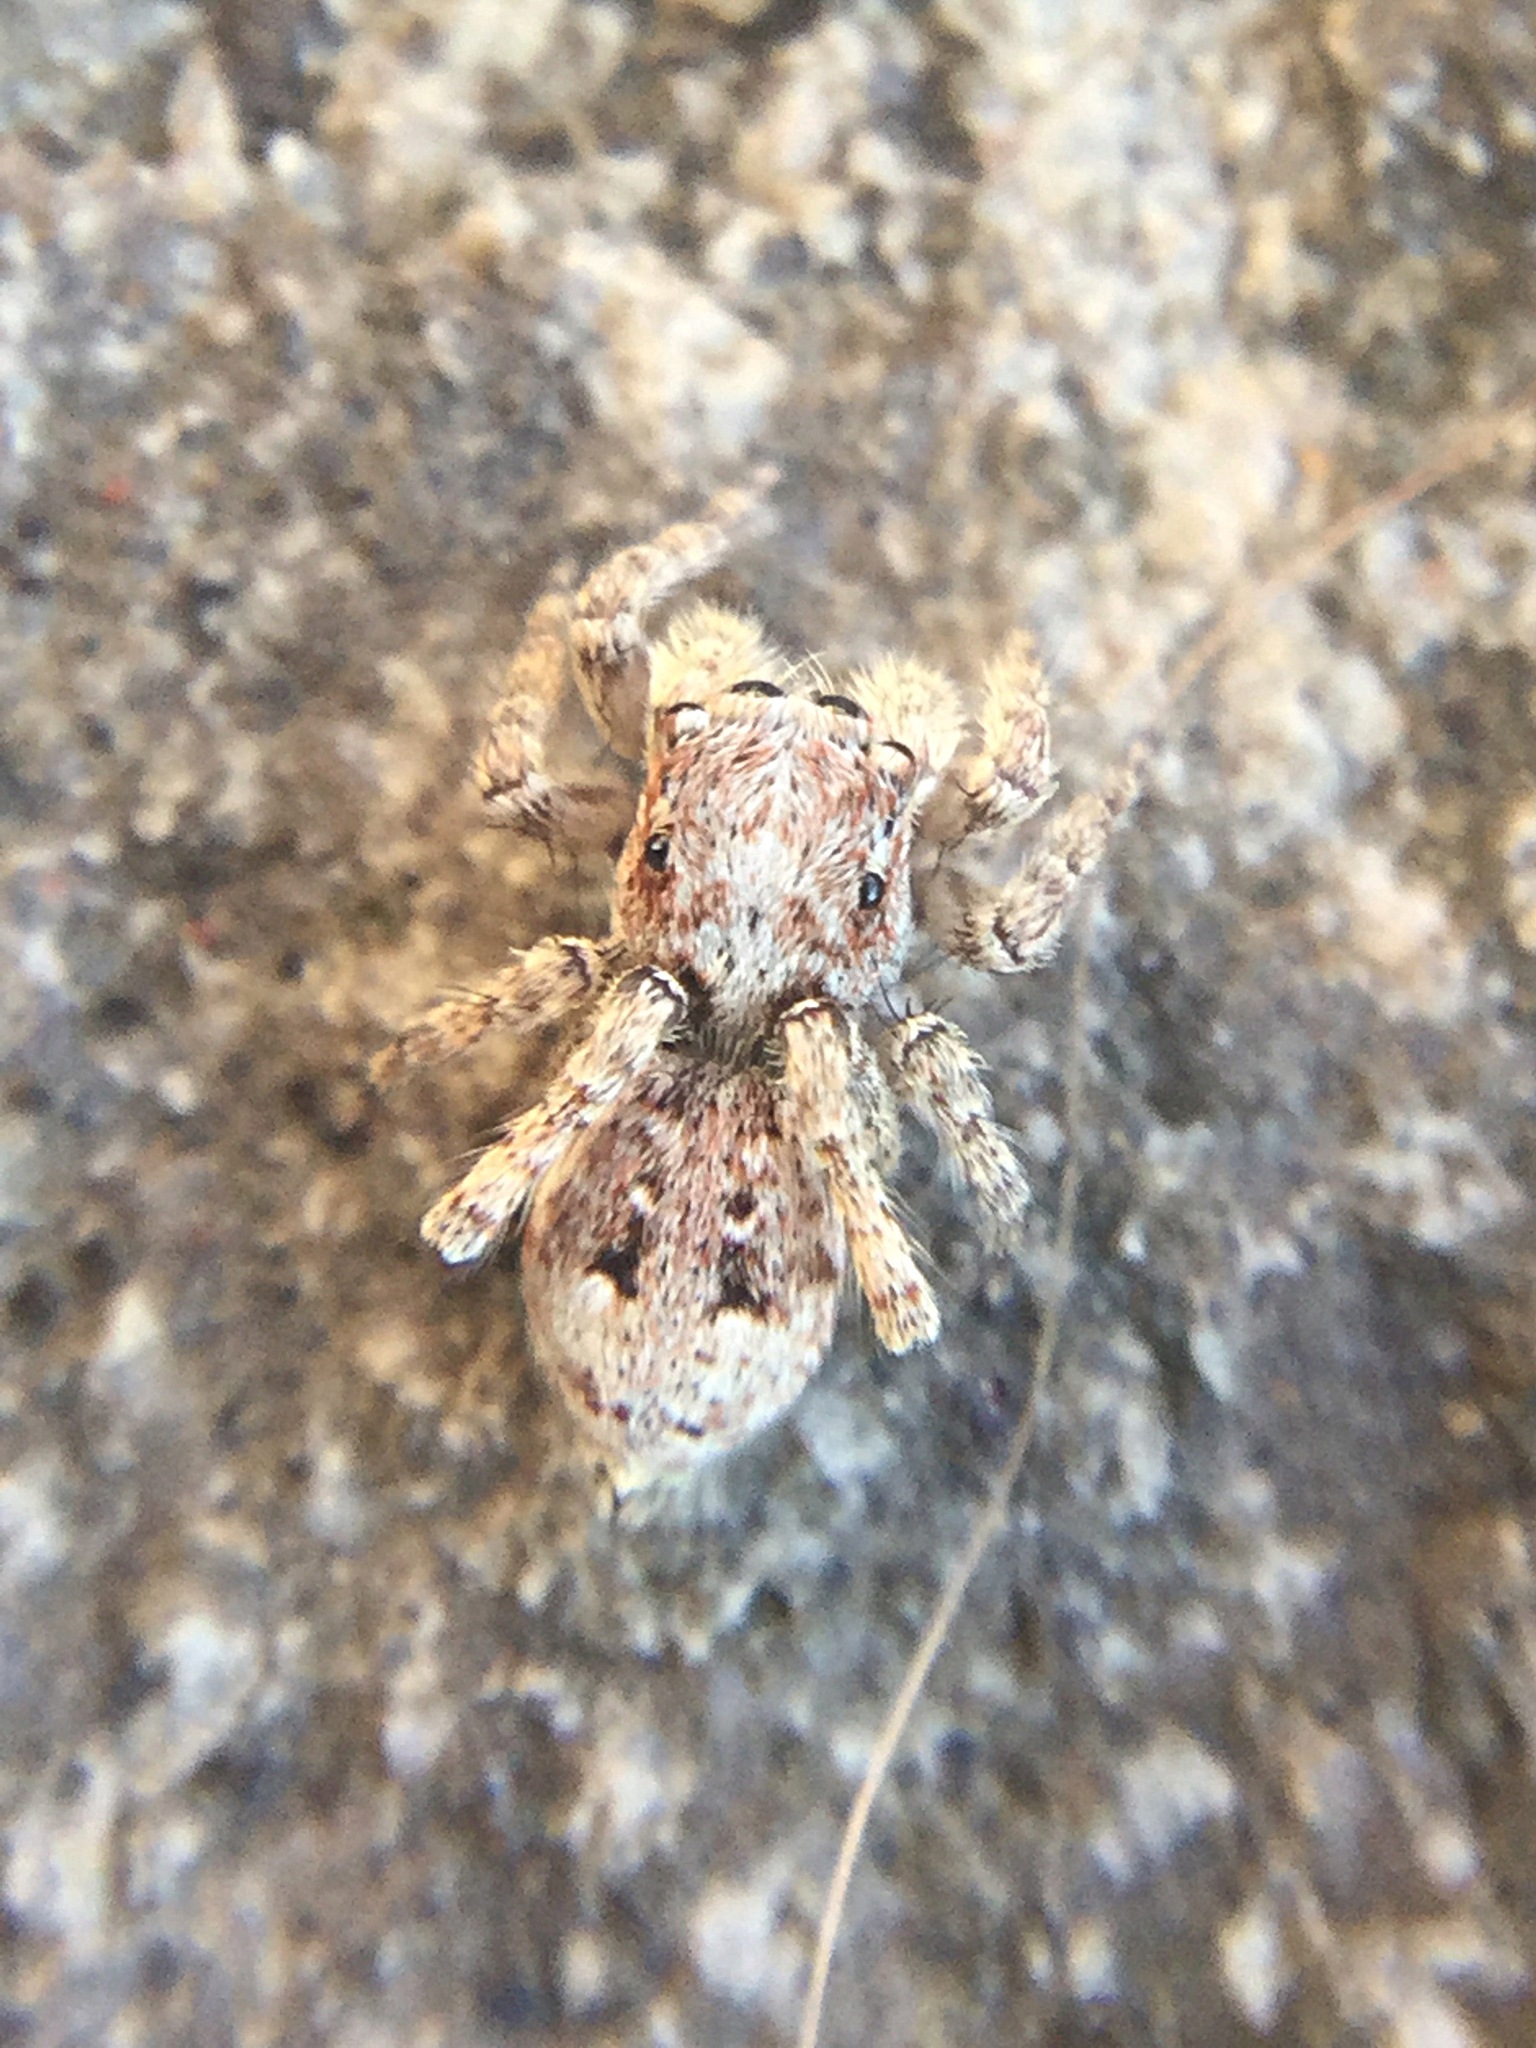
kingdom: Animalia
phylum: Arthropoda
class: Arachnida
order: Araneae
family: Salticidae
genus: Attulus
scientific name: Attulus fasciger
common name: Asiatic wall jumping spider
